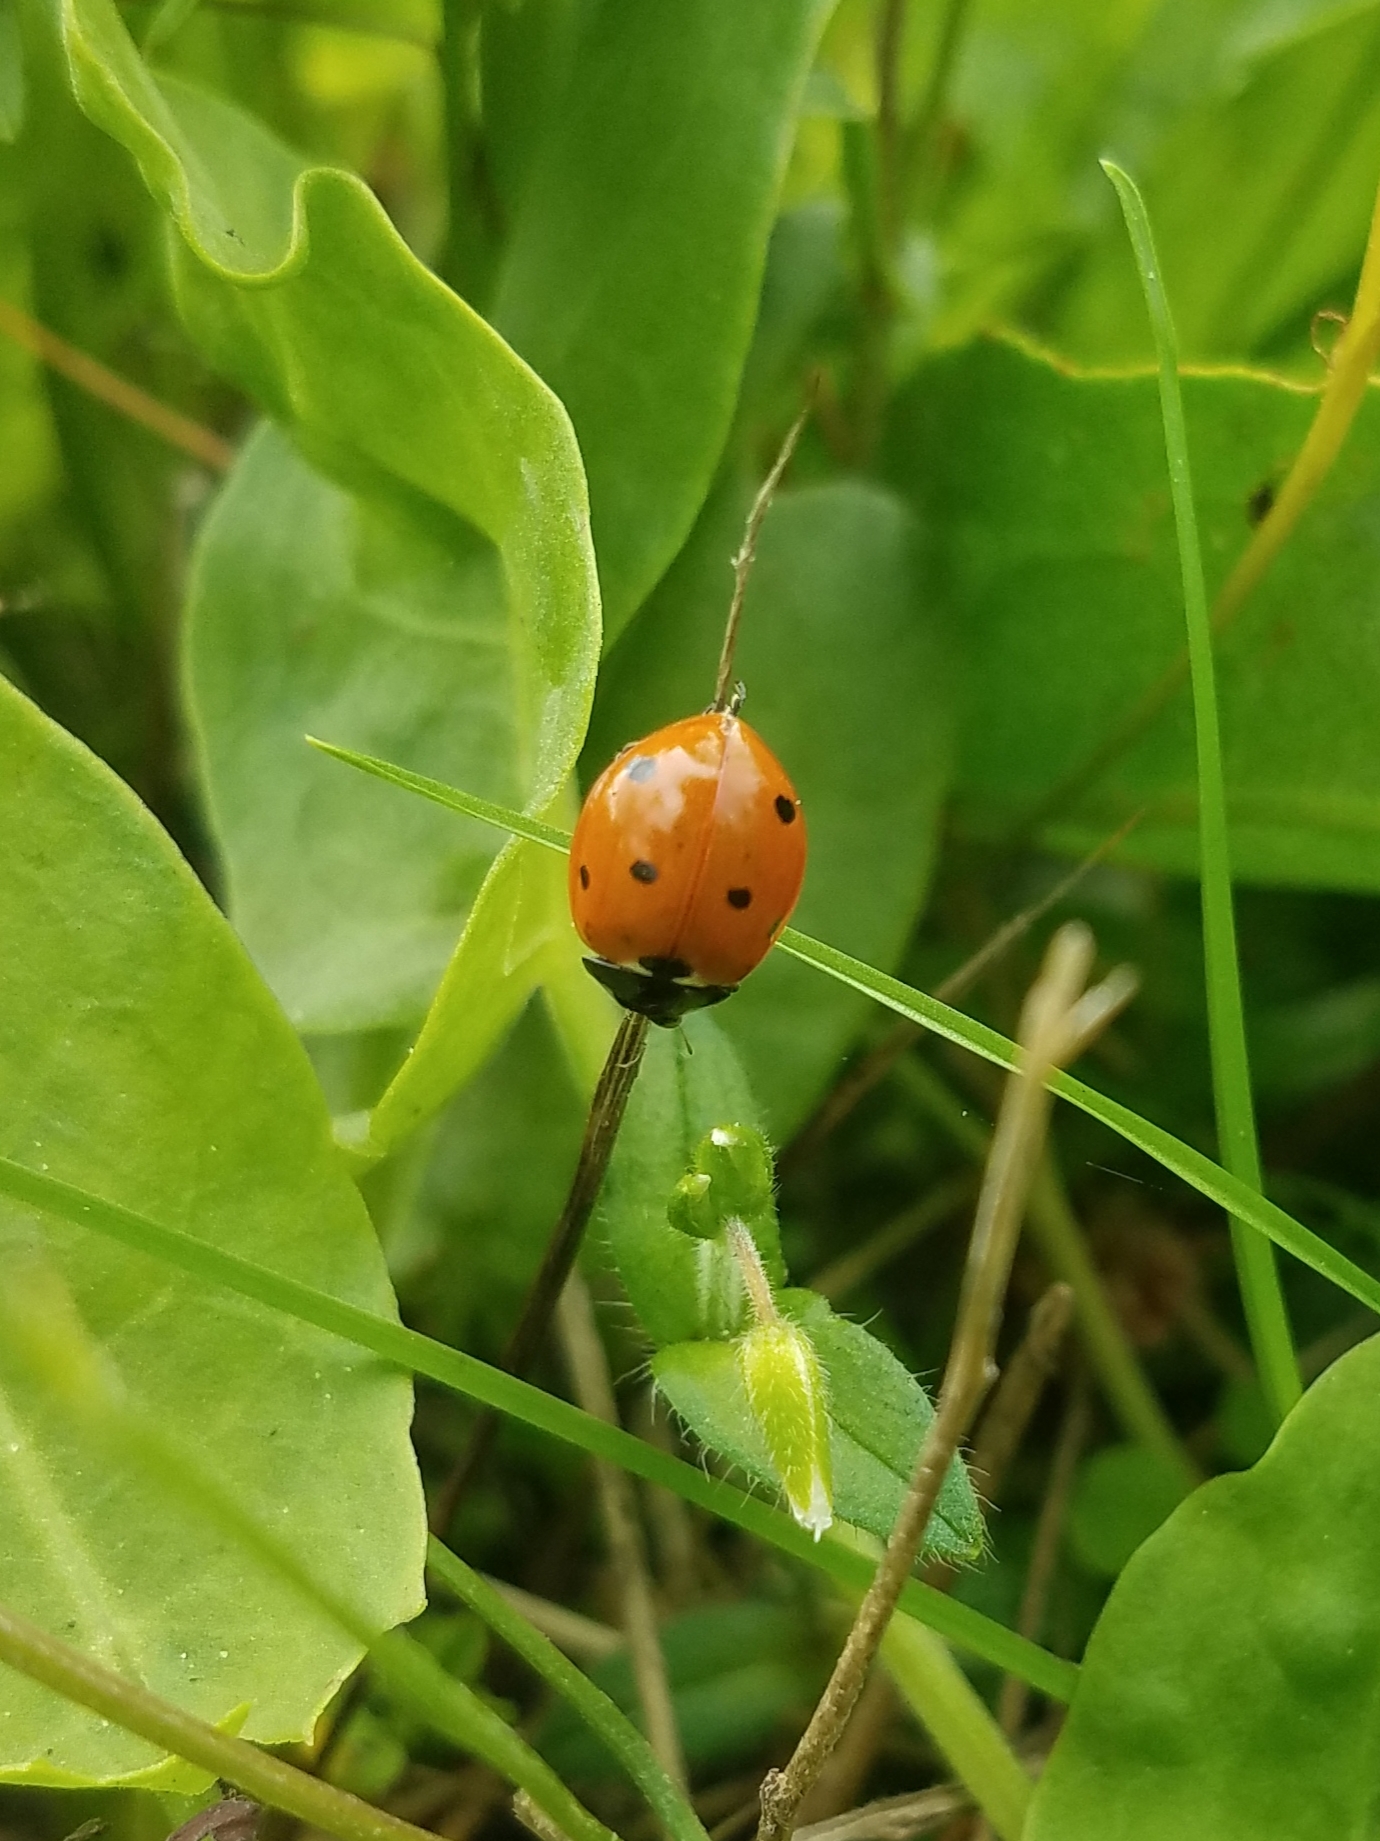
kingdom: Animalia
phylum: Arthropoda
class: Insecta
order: Coleoptera
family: Coccinellidae
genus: Coccinella
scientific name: Coccinella septempunctata
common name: Sevenspotted lady beetle
